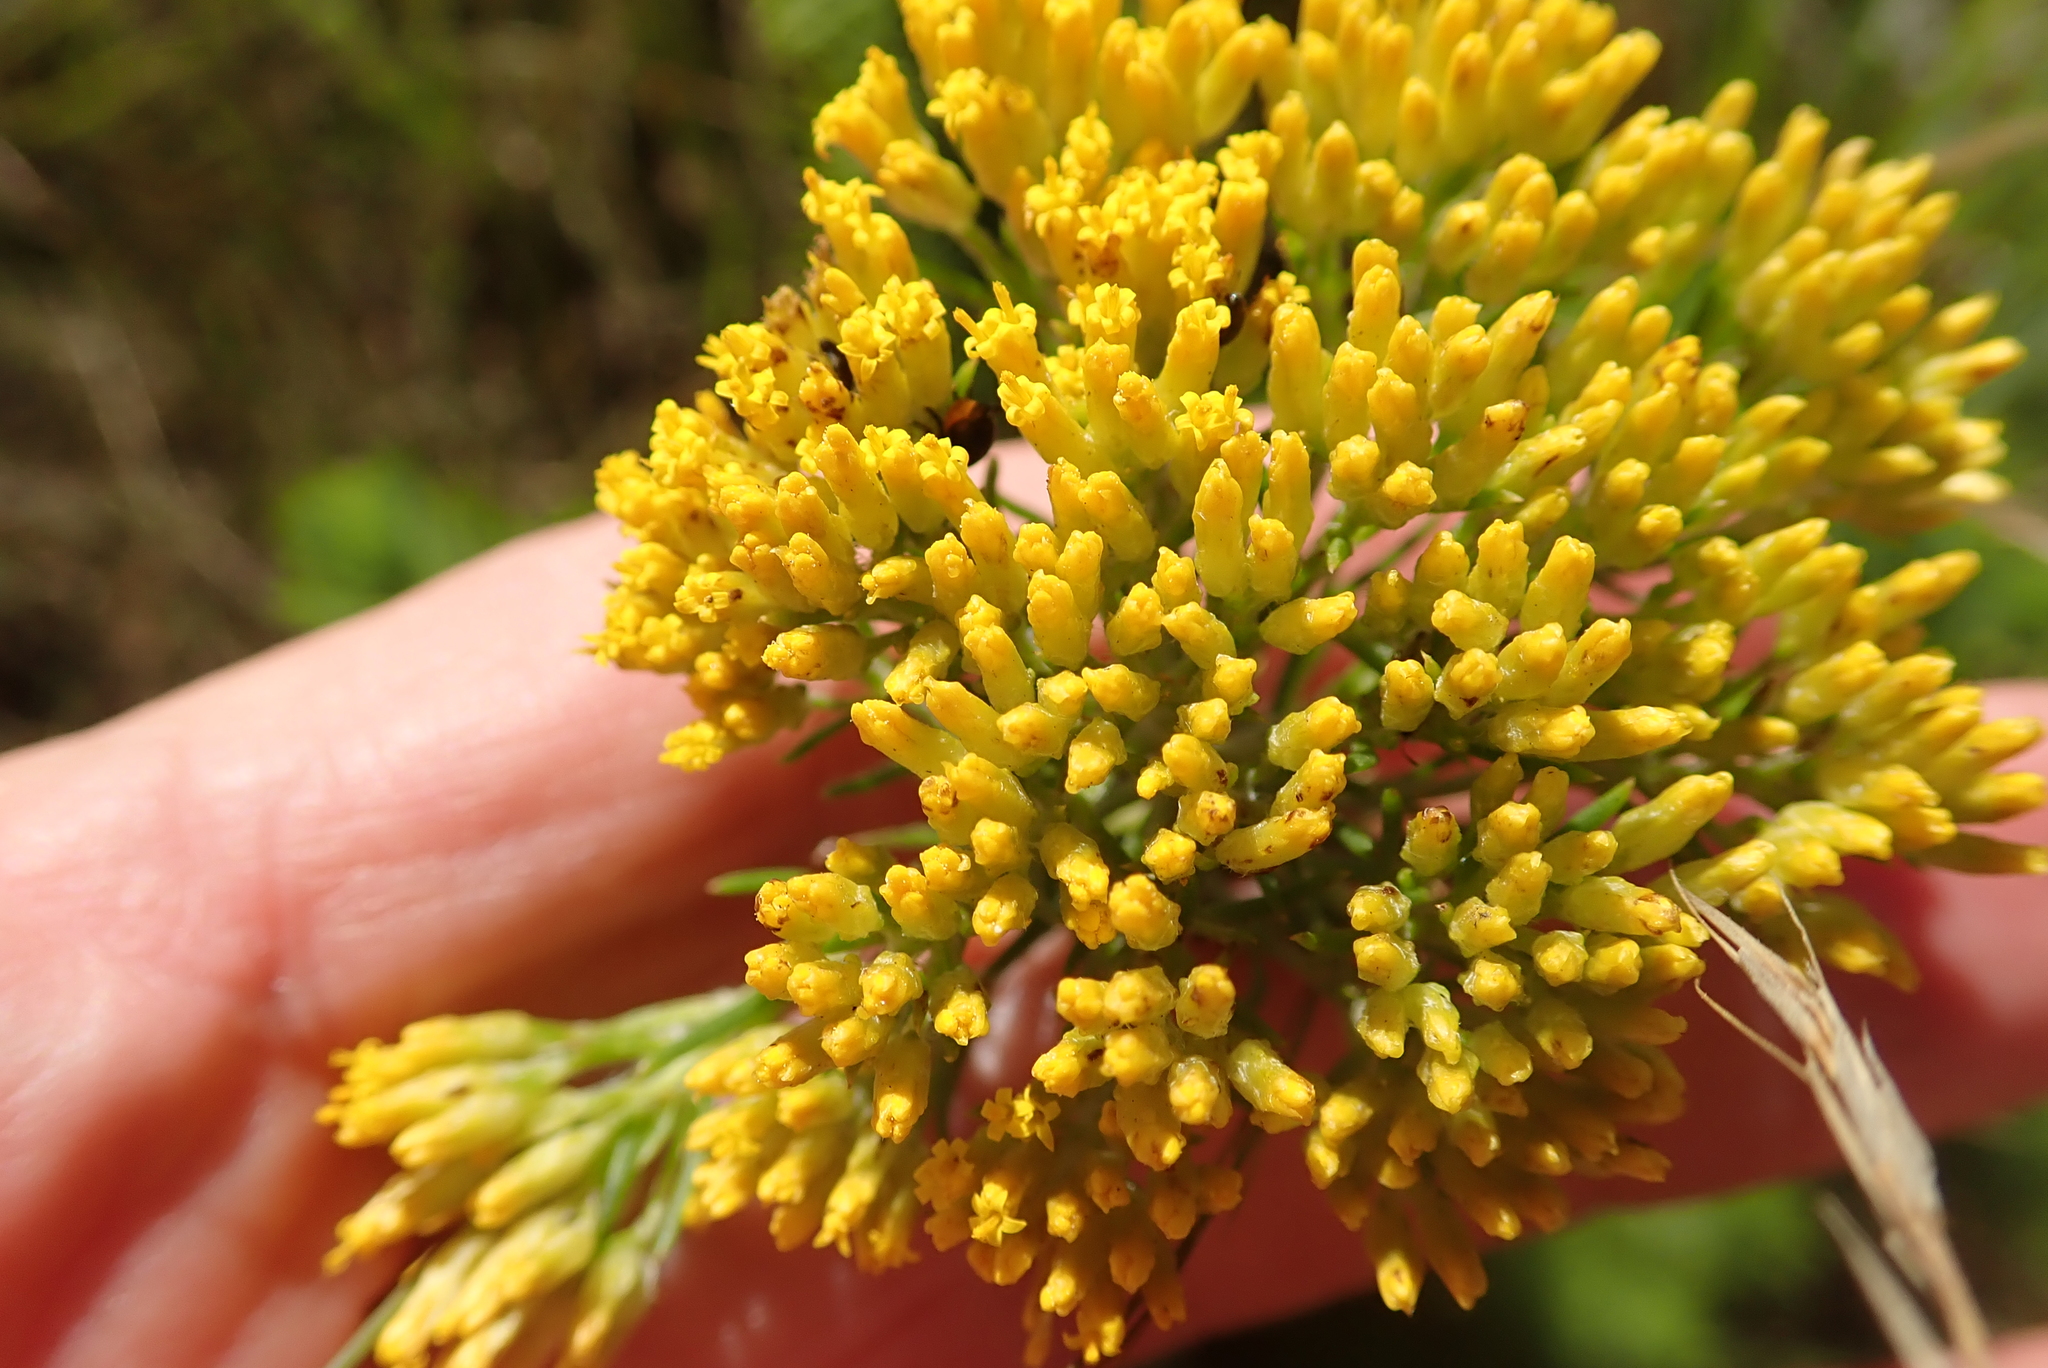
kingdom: Plantae
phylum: Tracheophyta
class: Magnoliopsida
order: Asterales
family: Asteraceae
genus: Phymaspermum
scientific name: Phymaspermum acerosum
